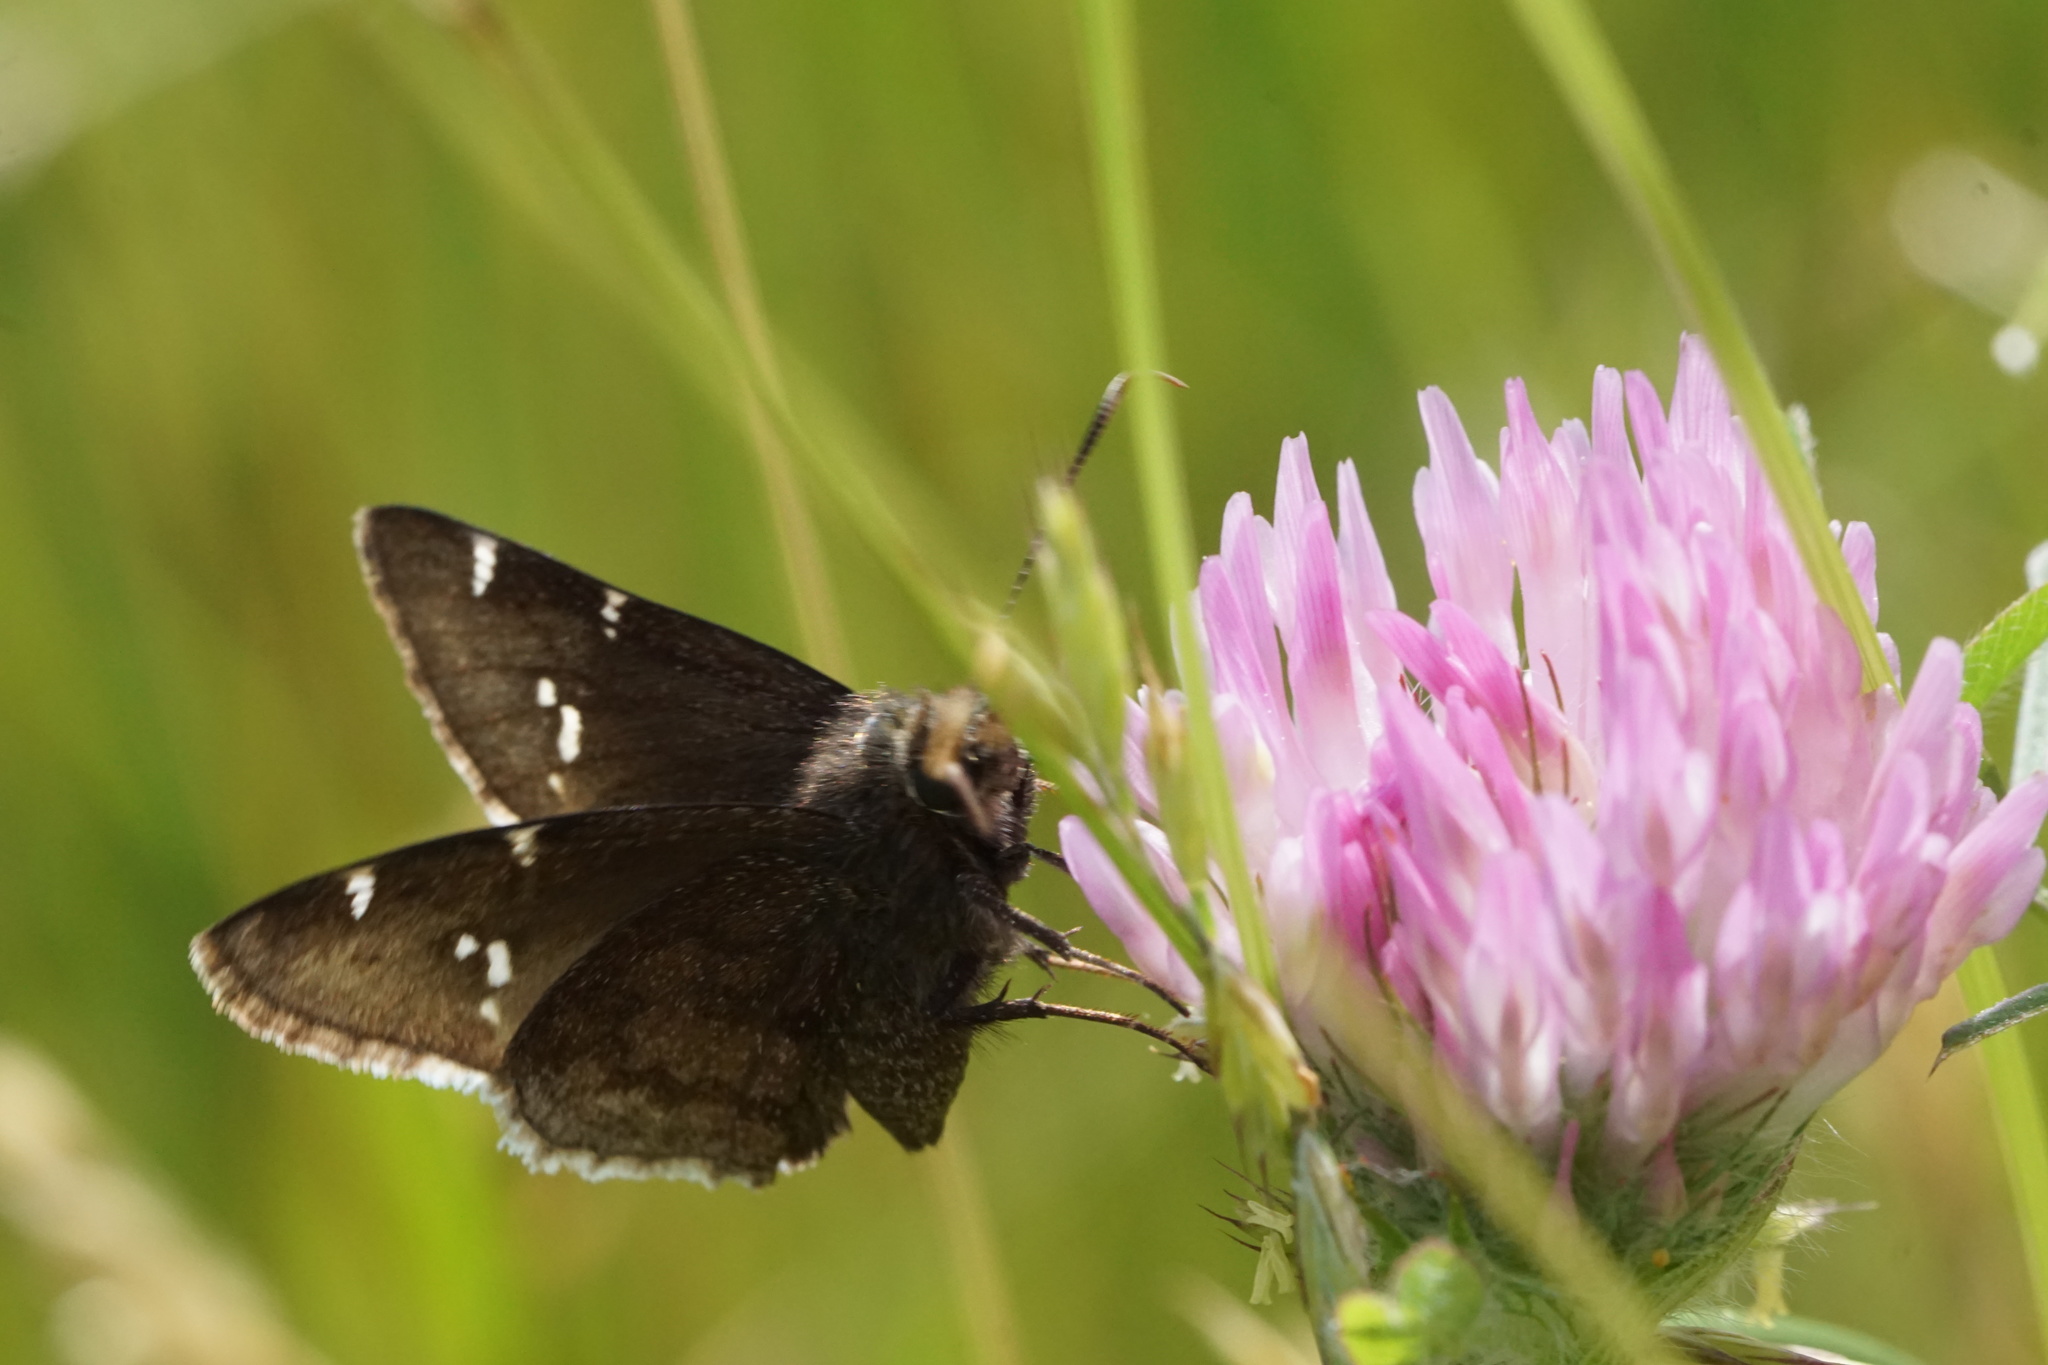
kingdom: Animalia
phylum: Arthropoda
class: Insecta
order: Lepidoptera
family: Hesperiidae
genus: Thorybes
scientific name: Thorybes daunus
